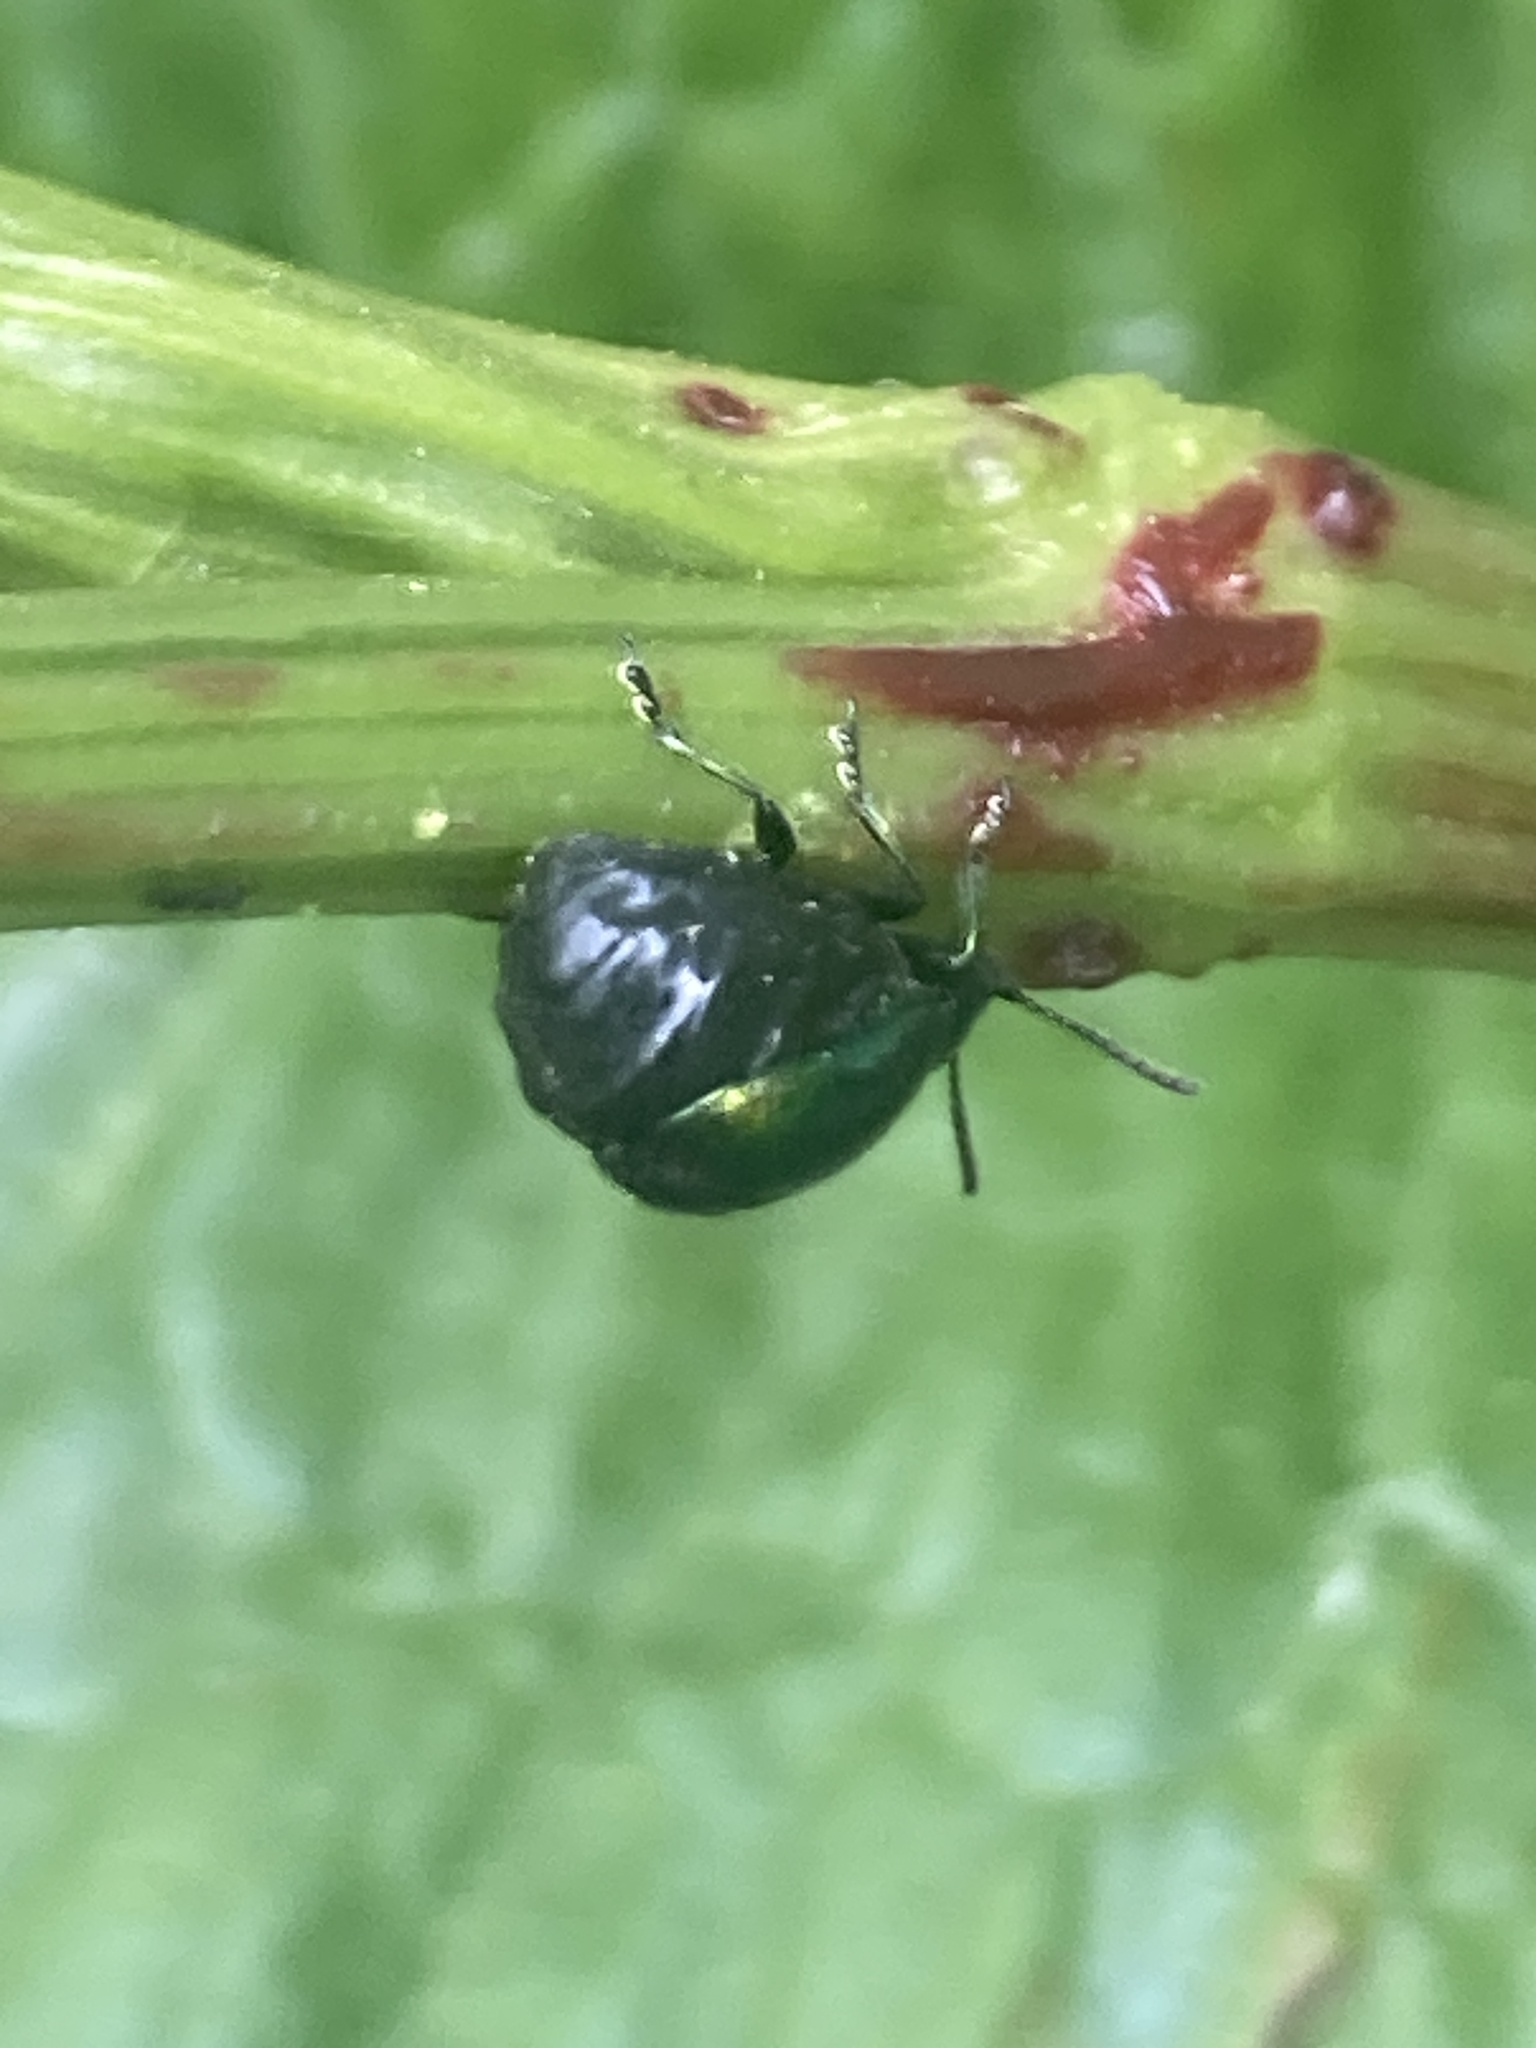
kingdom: Animalia
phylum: Arthropoda
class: Insecta
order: Coleoptera
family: Chrysomelidae
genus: Gastrophysa
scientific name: Gastrophysa viridula
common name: Green dock beetle
